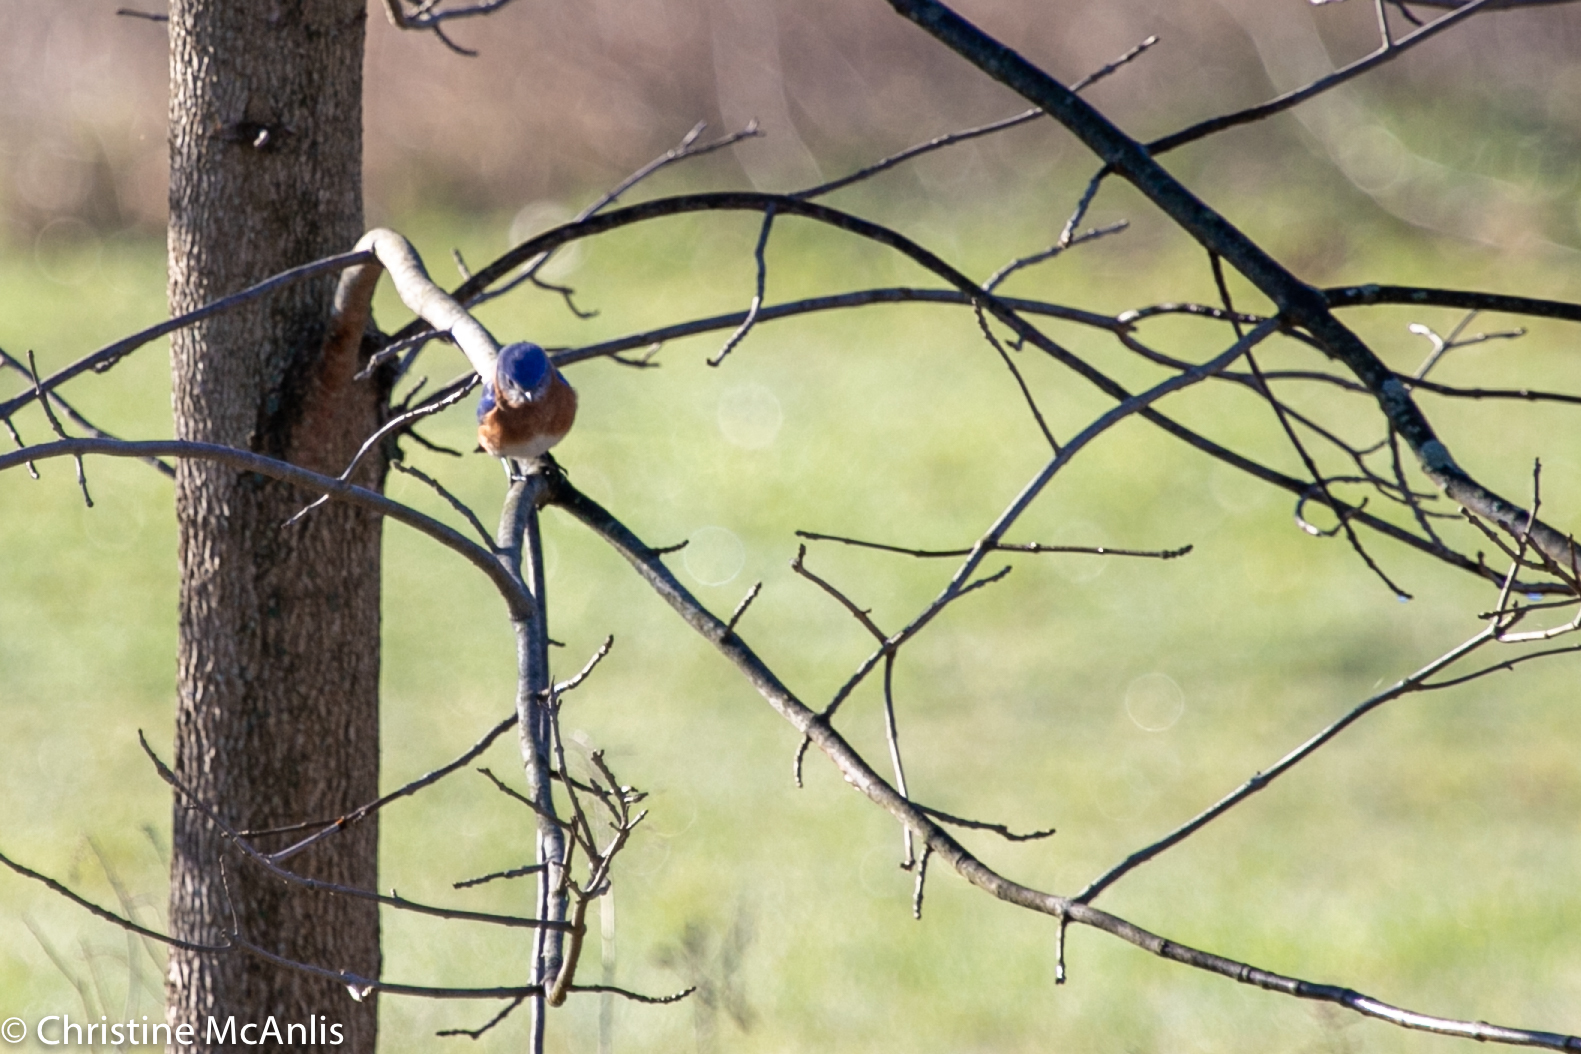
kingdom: Animalia
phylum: Chordata
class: Aves
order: Passeriformes
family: Turdidae
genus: Sialia
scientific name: Sialia sialis
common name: Eastern bluebird
